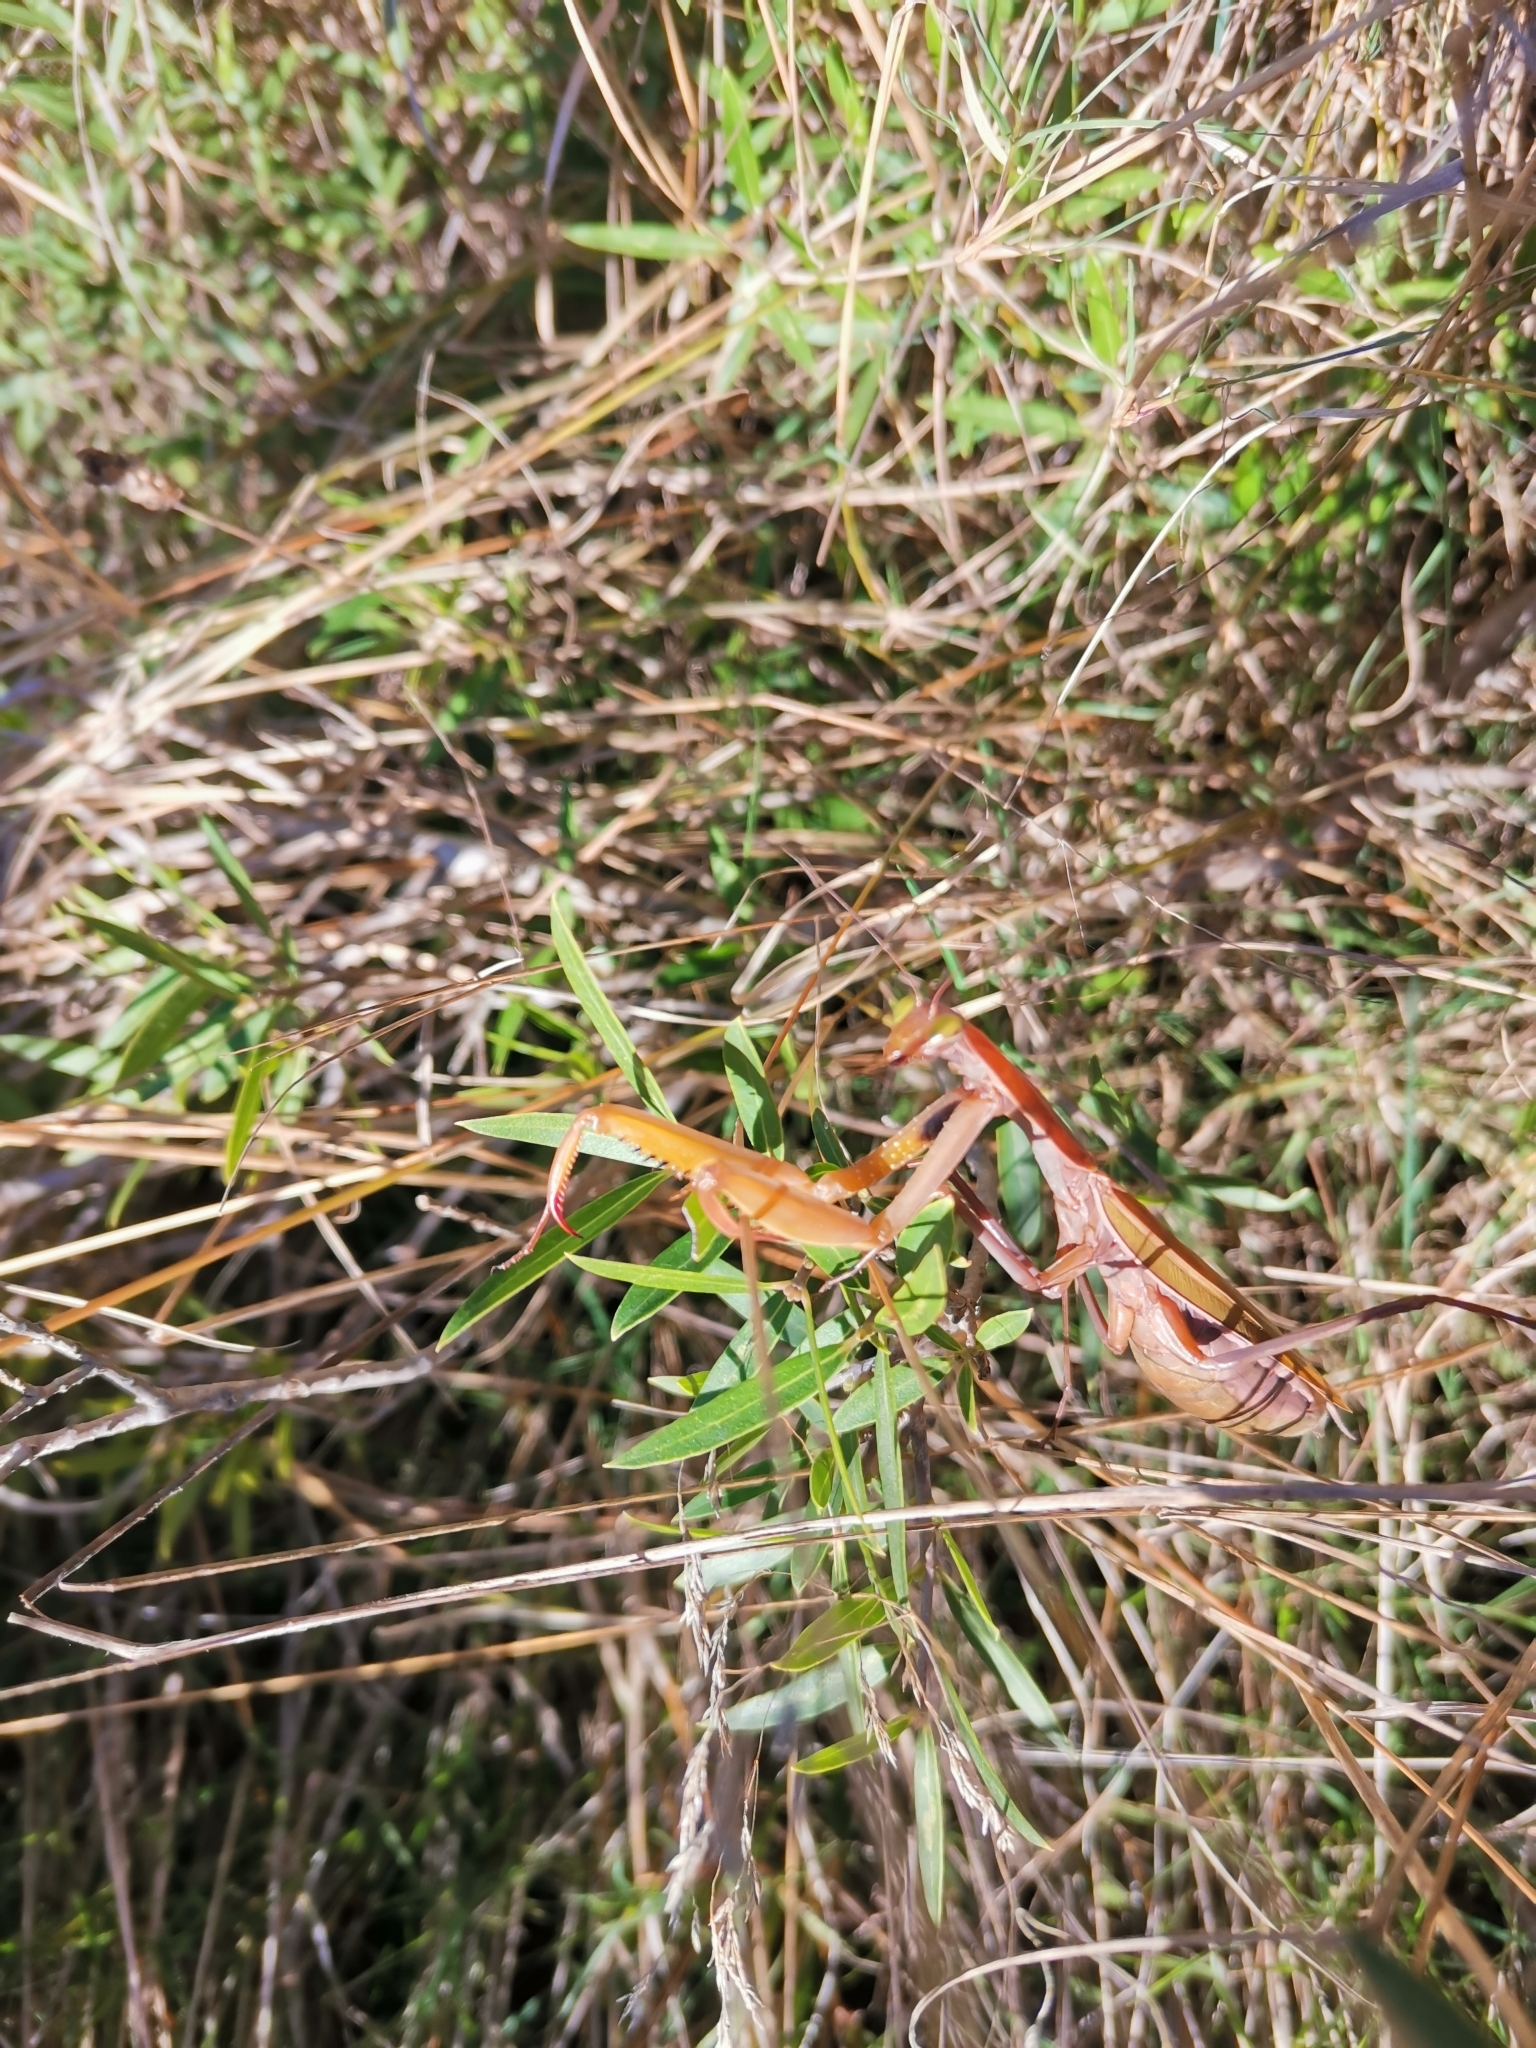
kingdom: Animalia
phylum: Arthropoda
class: Insecta
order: Mantodea
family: Mantidae
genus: Mantis
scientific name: Mantis religiosa
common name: Praying mantis
